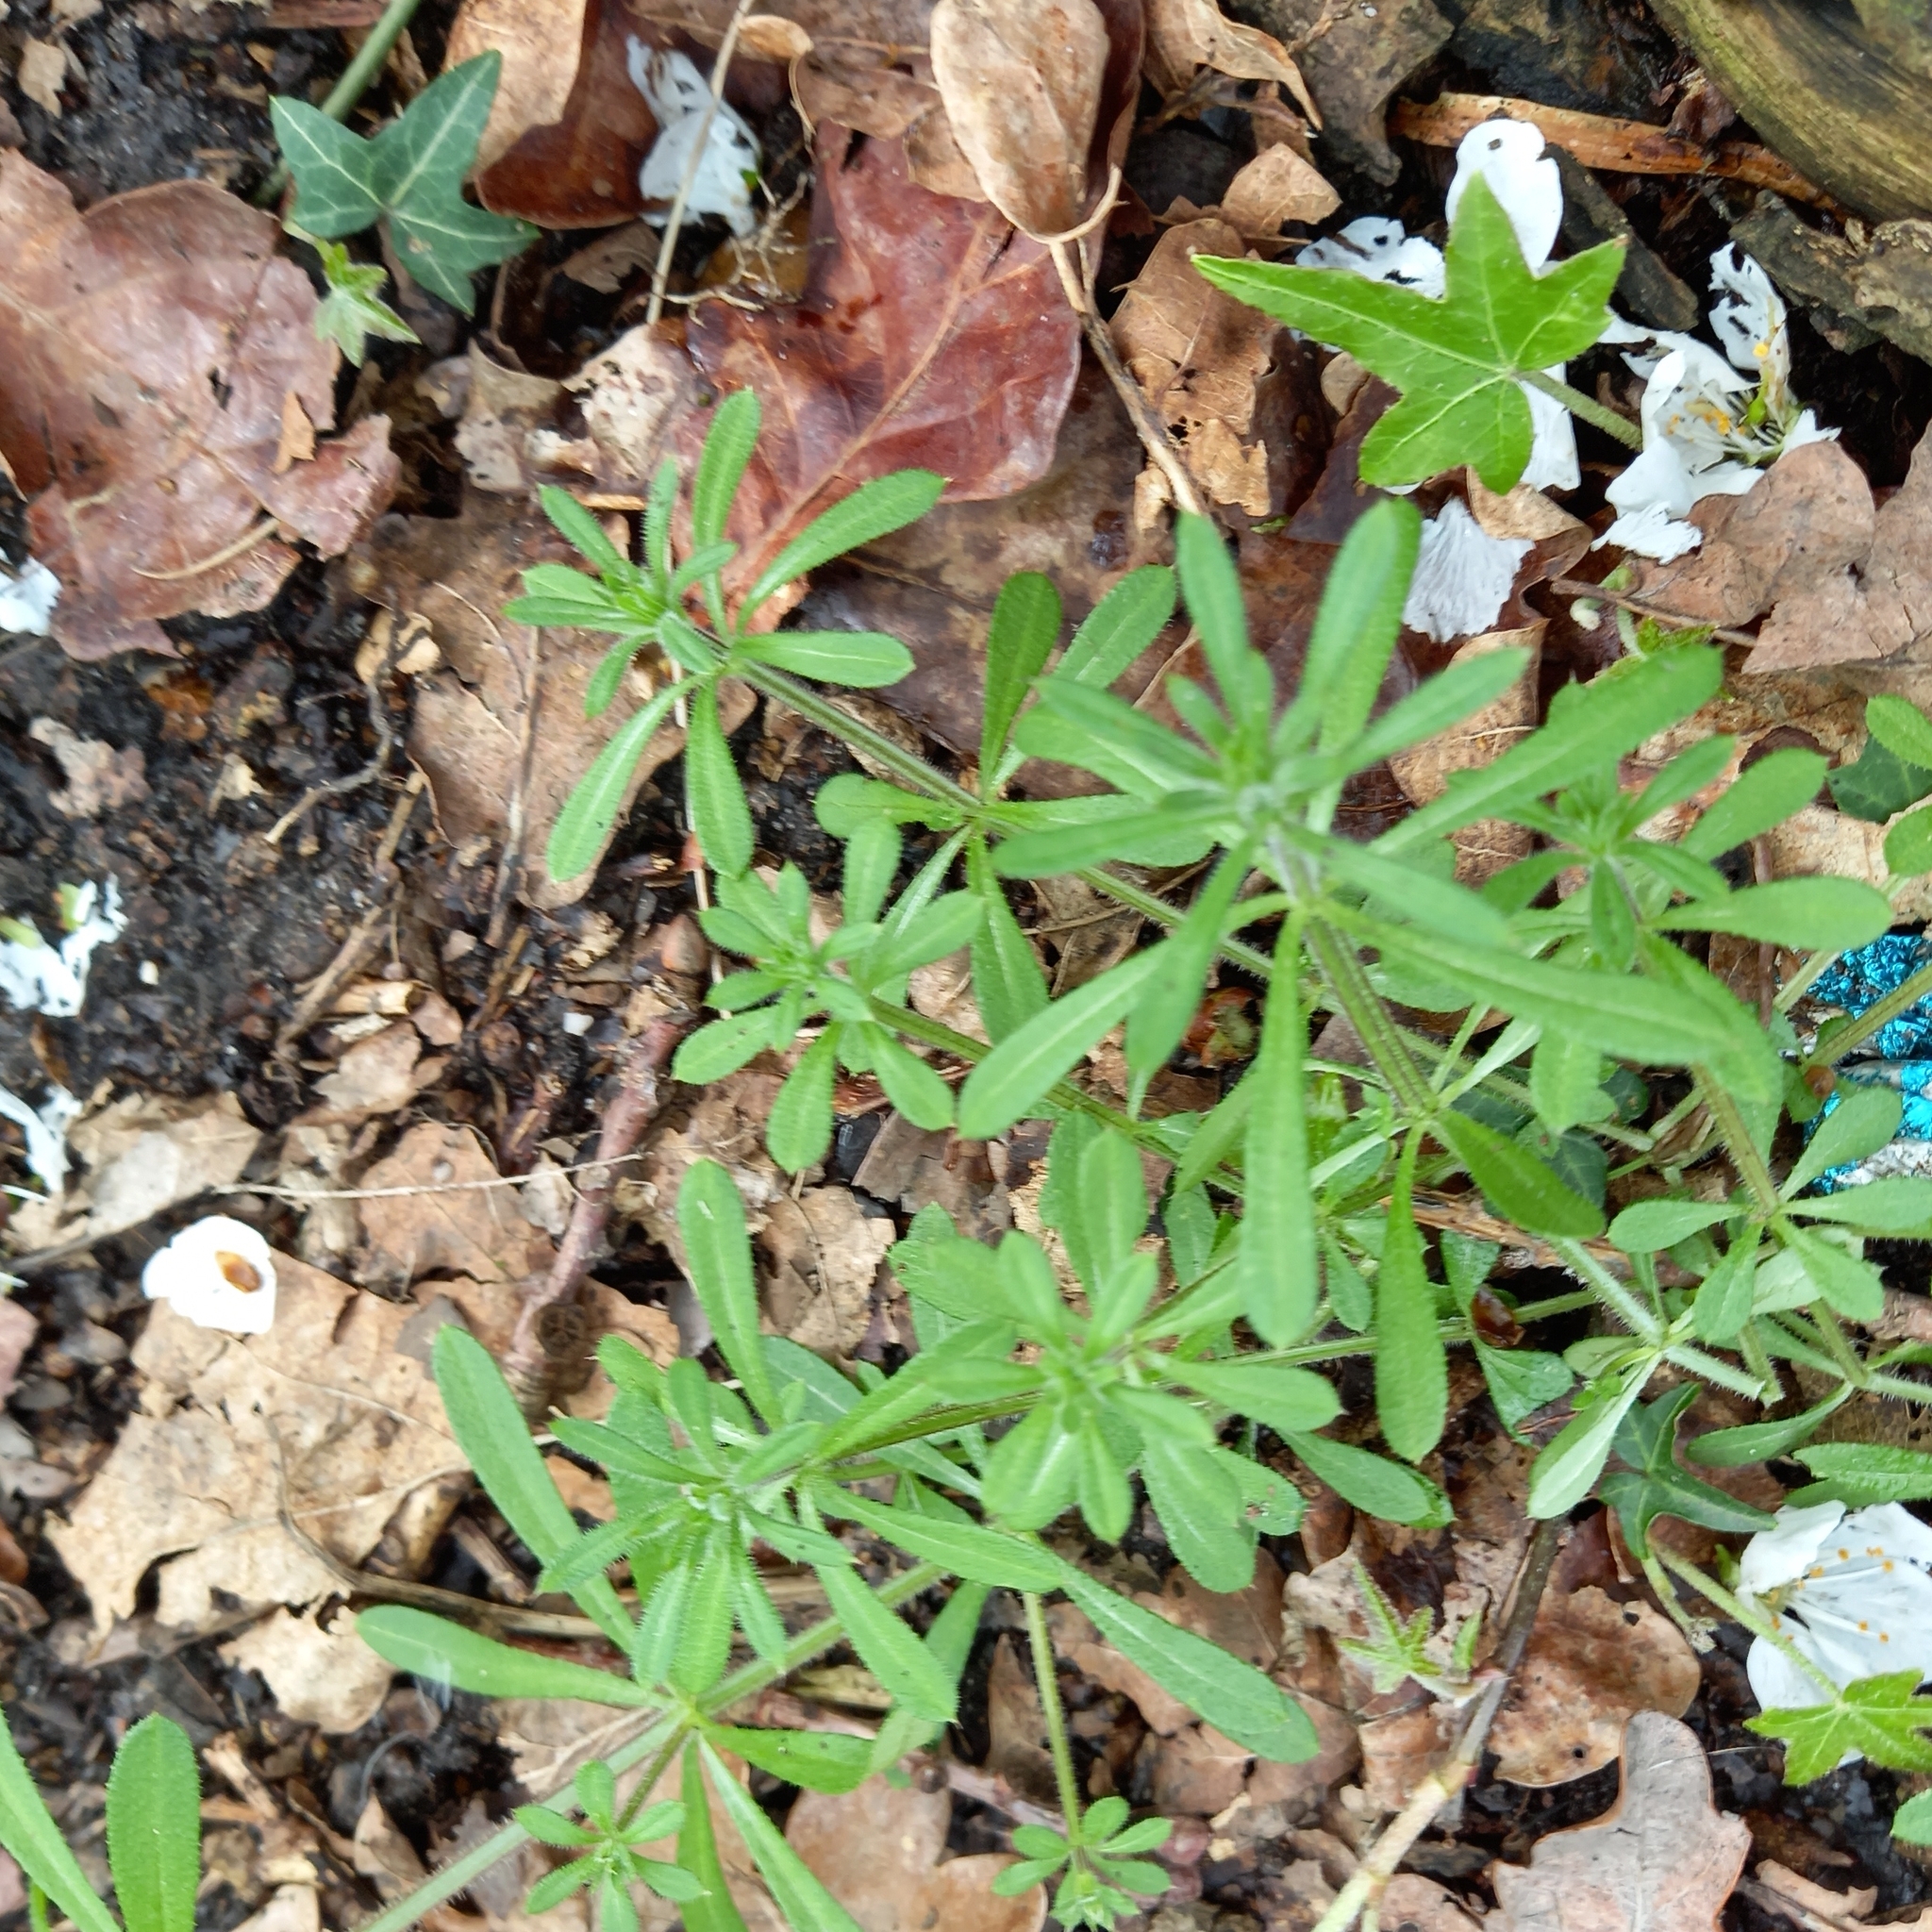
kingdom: Plantae
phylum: Tracheophyta
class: Magnoliopsida
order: Gentianales
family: Rubiaceae
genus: Galium
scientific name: Galium aparine
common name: Cleavers
